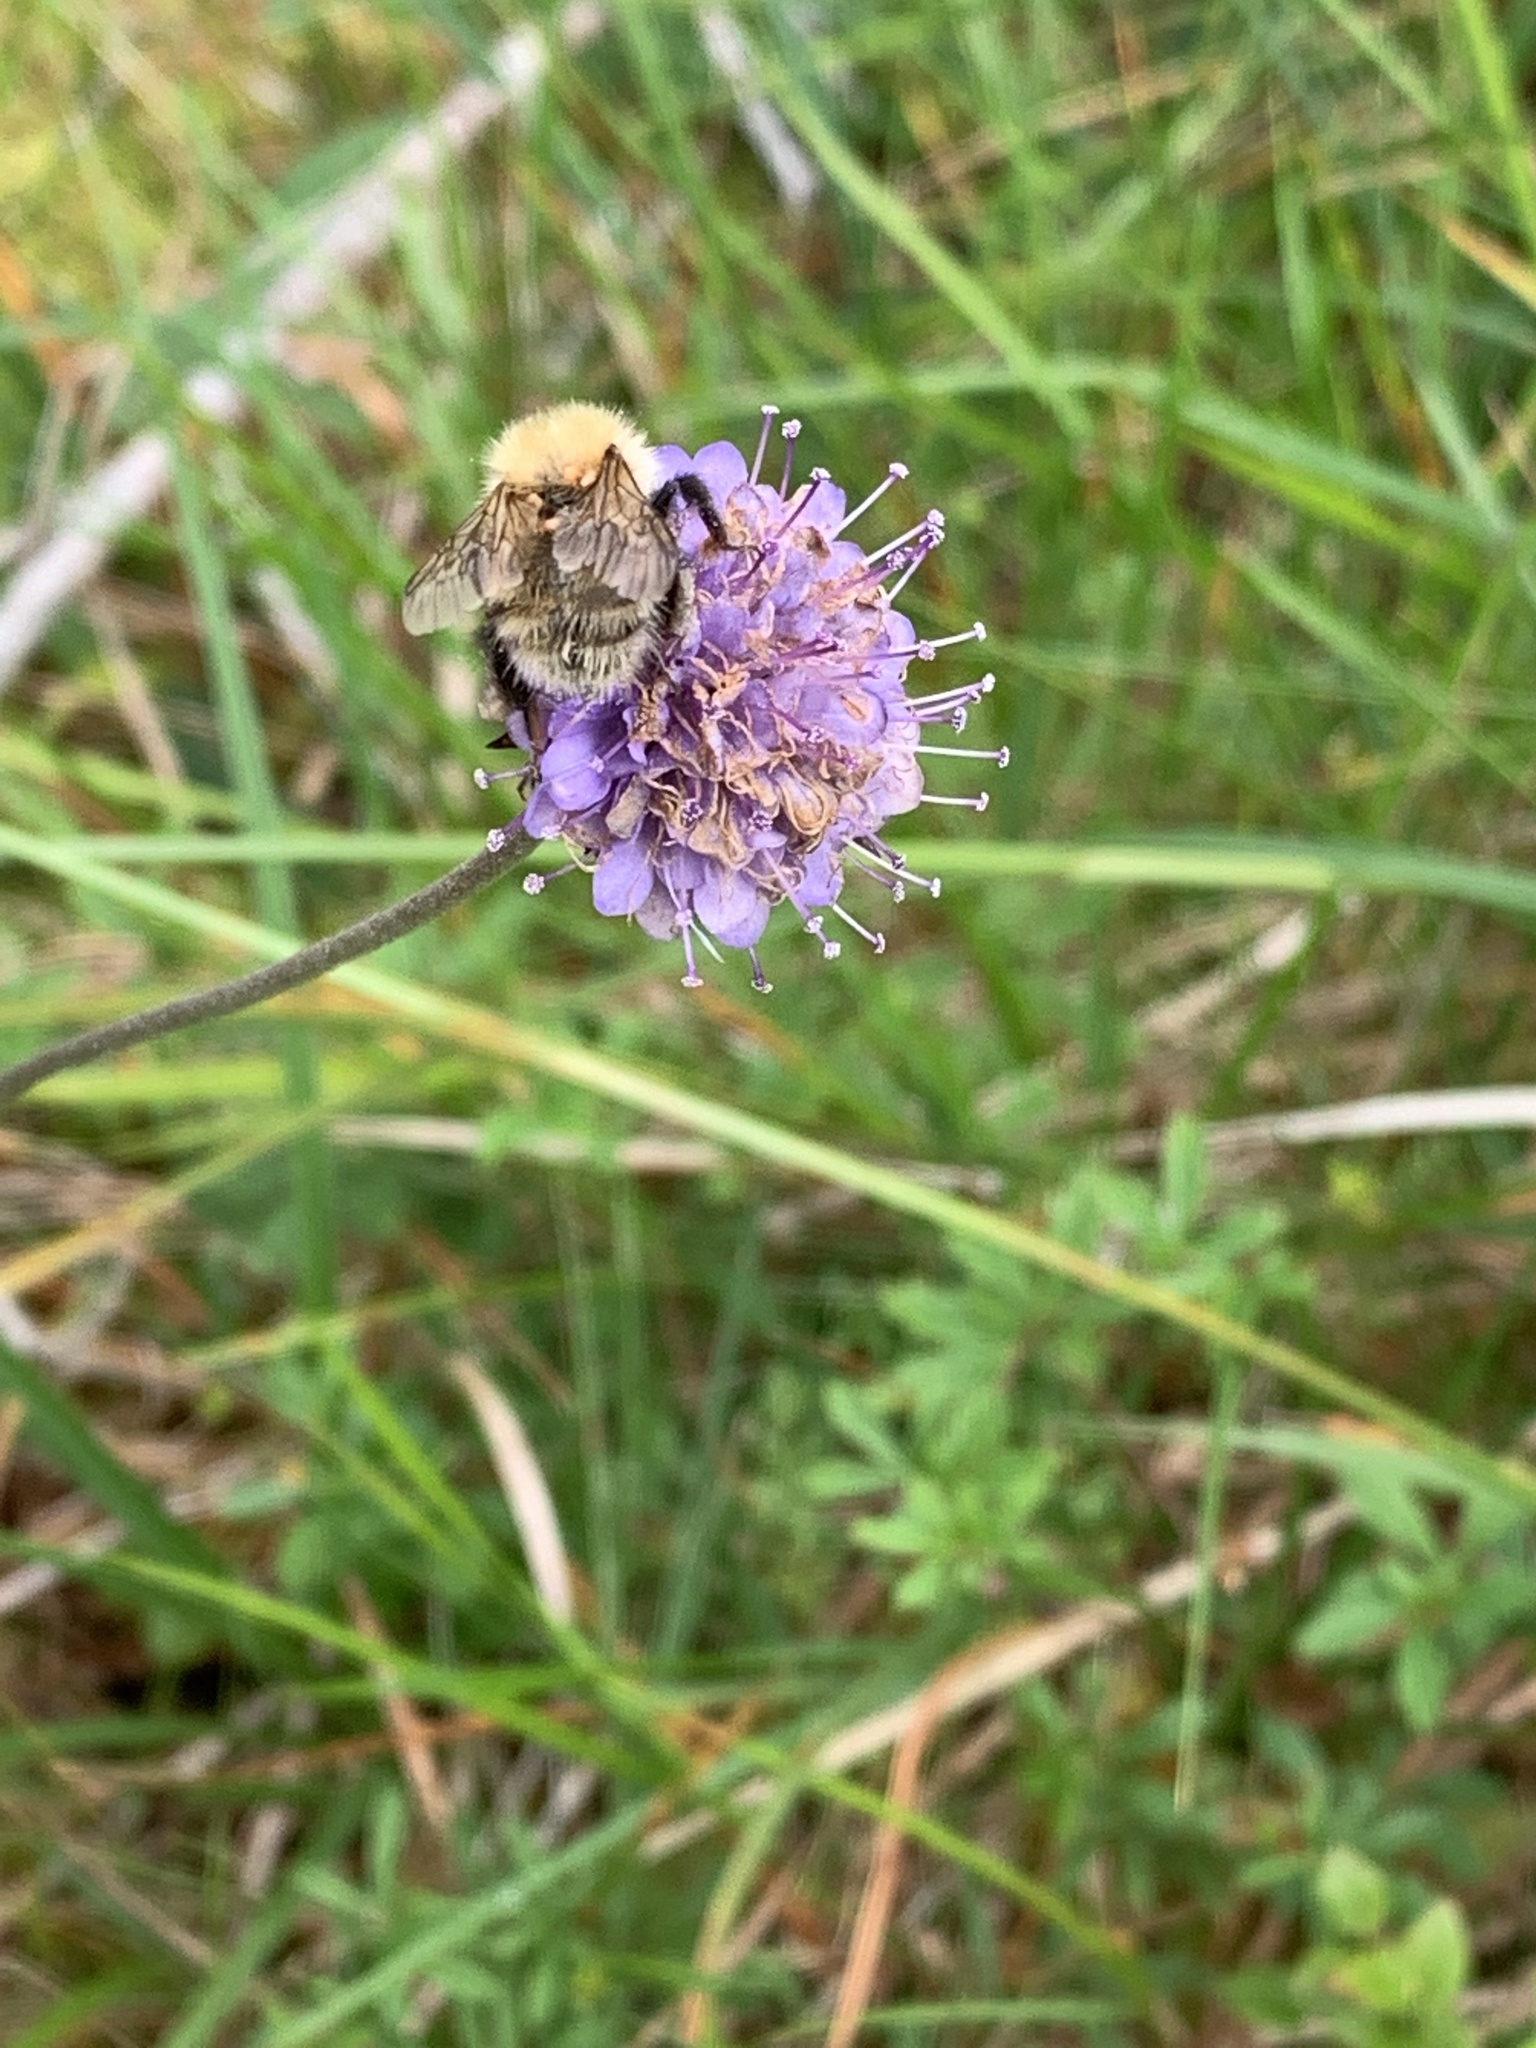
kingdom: Animalia
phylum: Arthropoda
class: Insecta
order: Hymenoptera
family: Apidae
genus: Bombus
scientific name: Bombus pascuorum
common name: Common carder bee
